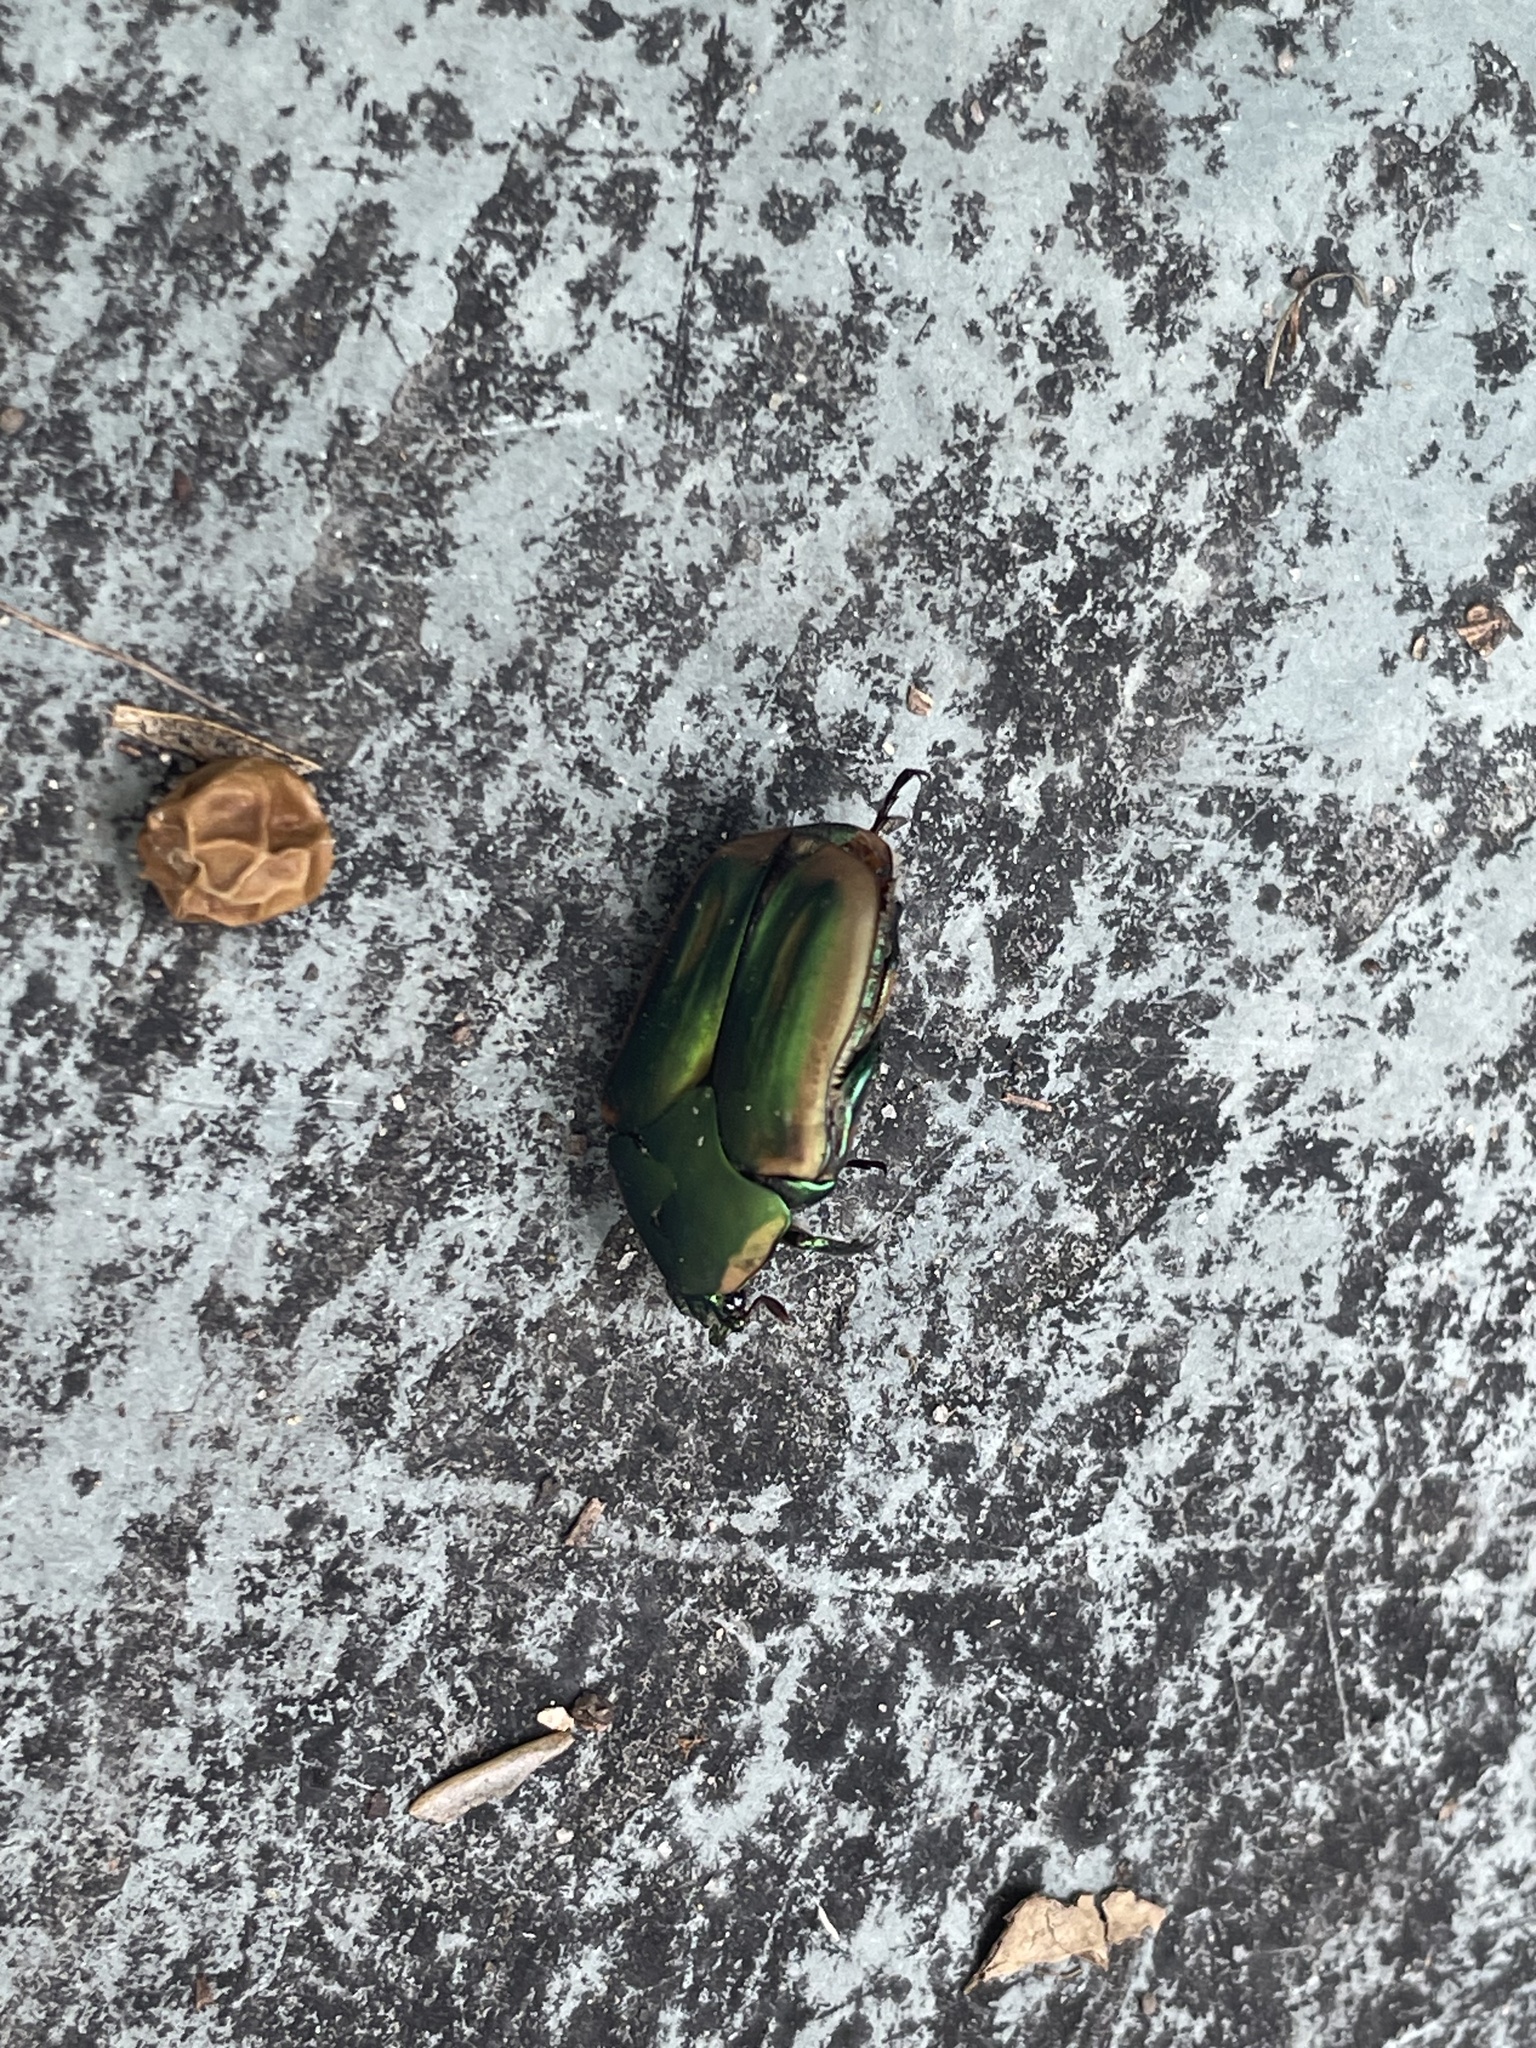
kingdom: Animalia
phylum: Arthropoda
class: Insecta
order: Coleoptera
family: Scarabaeidae
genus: Cotinis
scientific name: Cotinis nitida
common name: Common green june beetle
